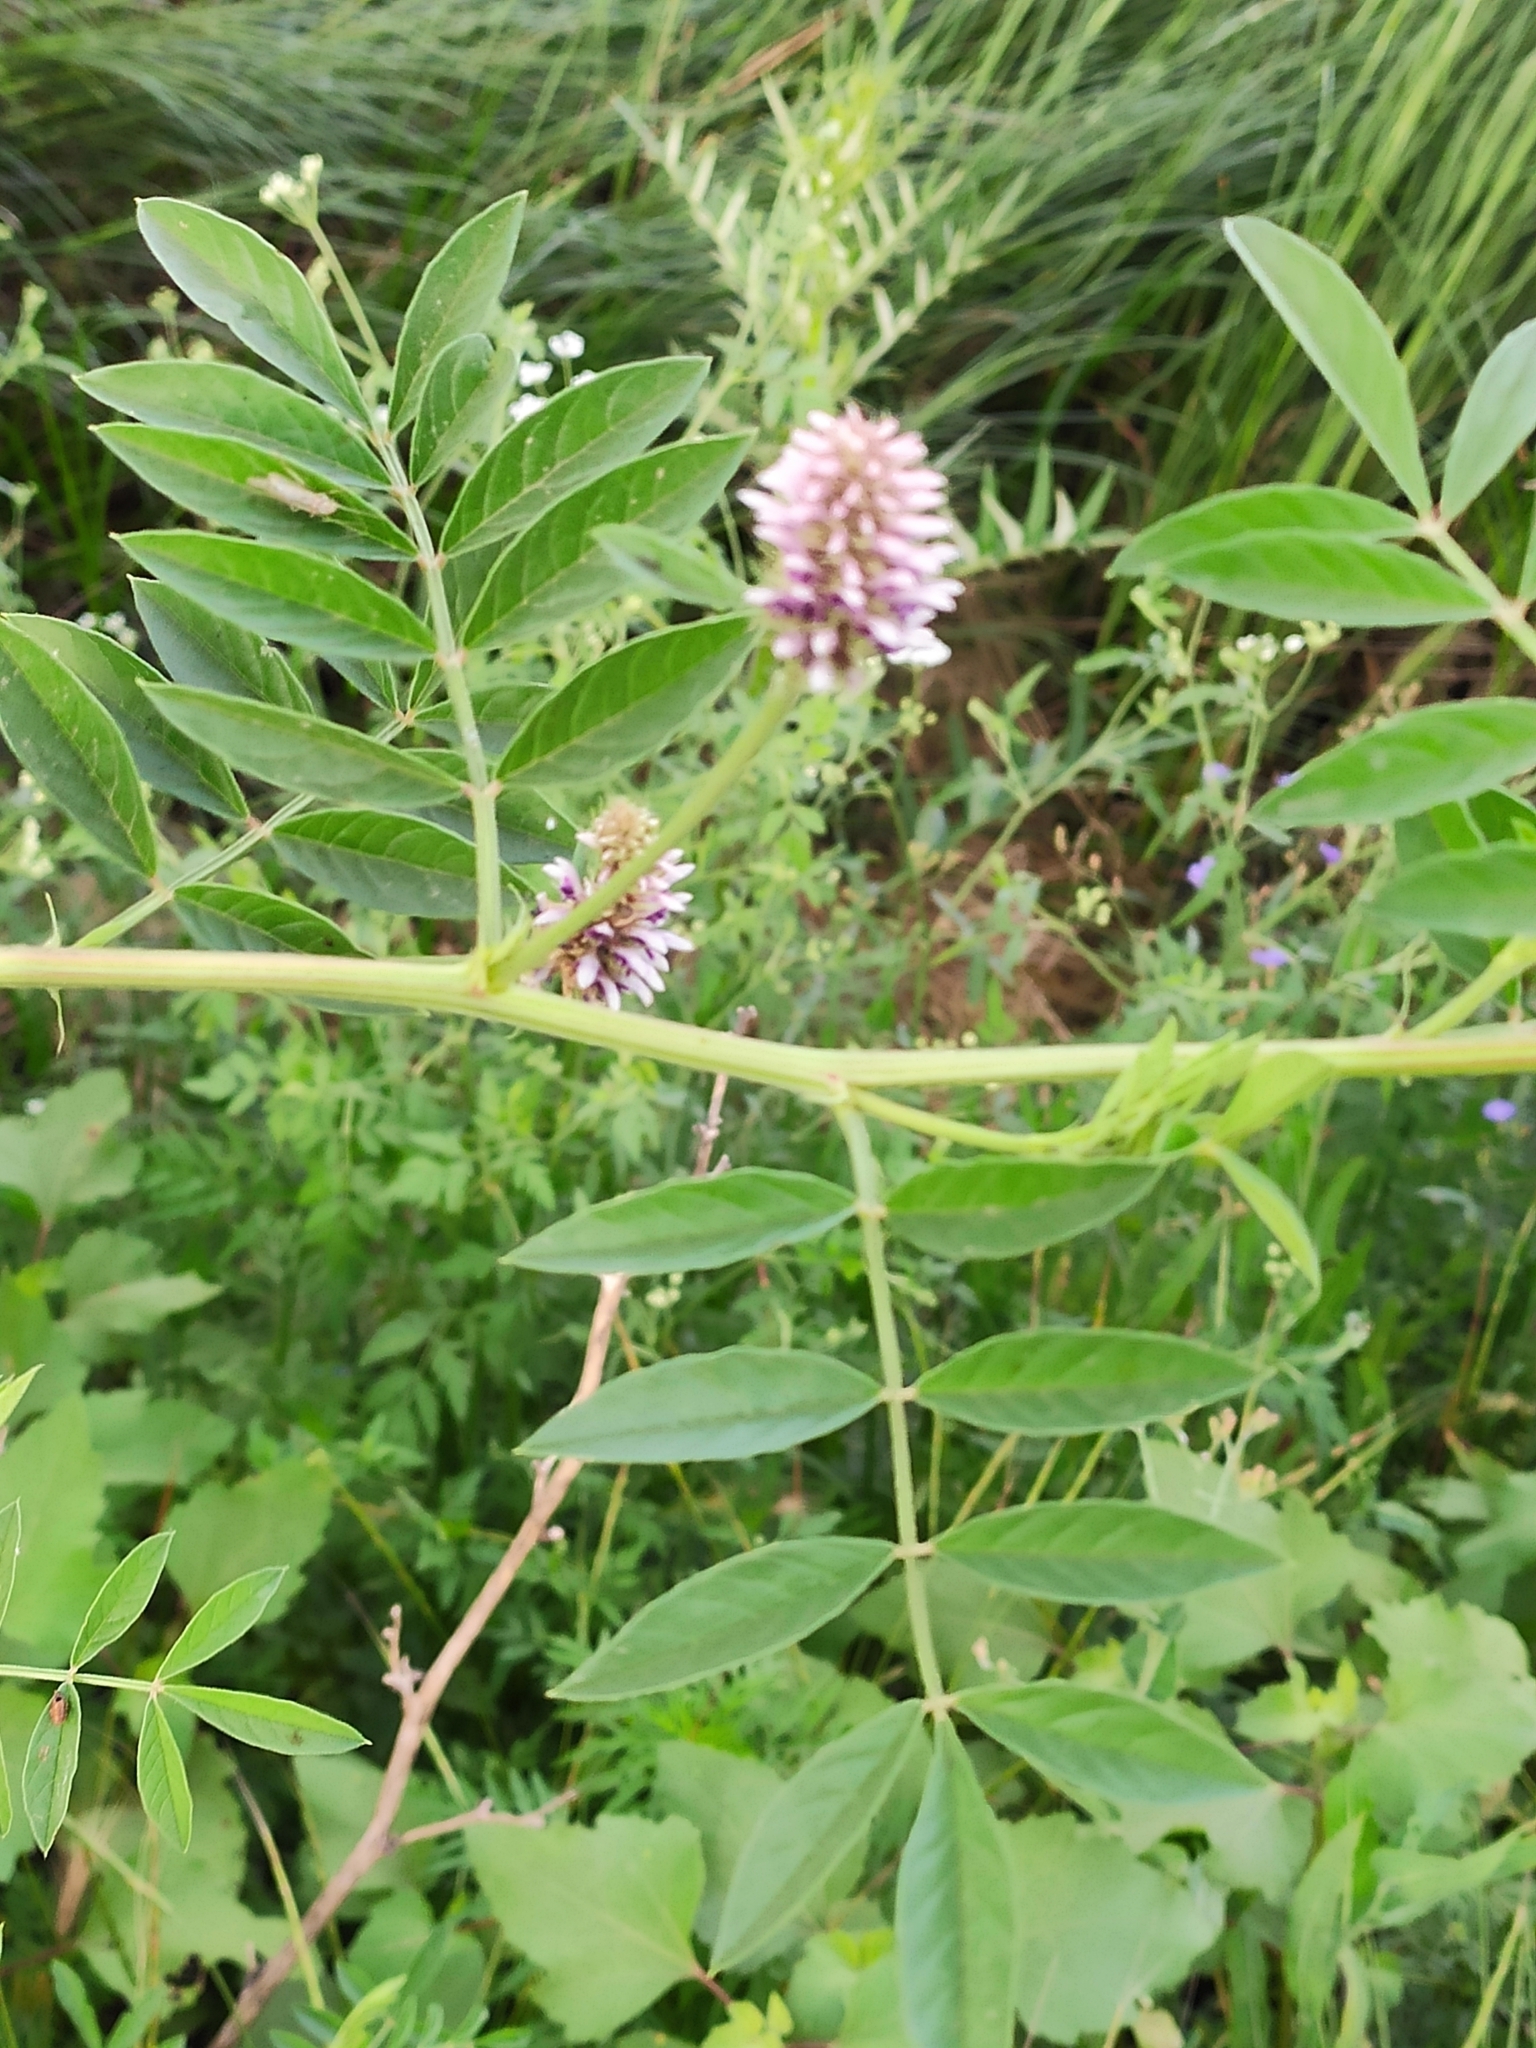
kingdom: Plantae
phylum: Tracheophyta
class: Magnoliopsida
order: Fabales
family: Fabaceae
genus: Glycyrrhiza
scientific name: Glycyrrhiza echinata
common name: German liquorice
